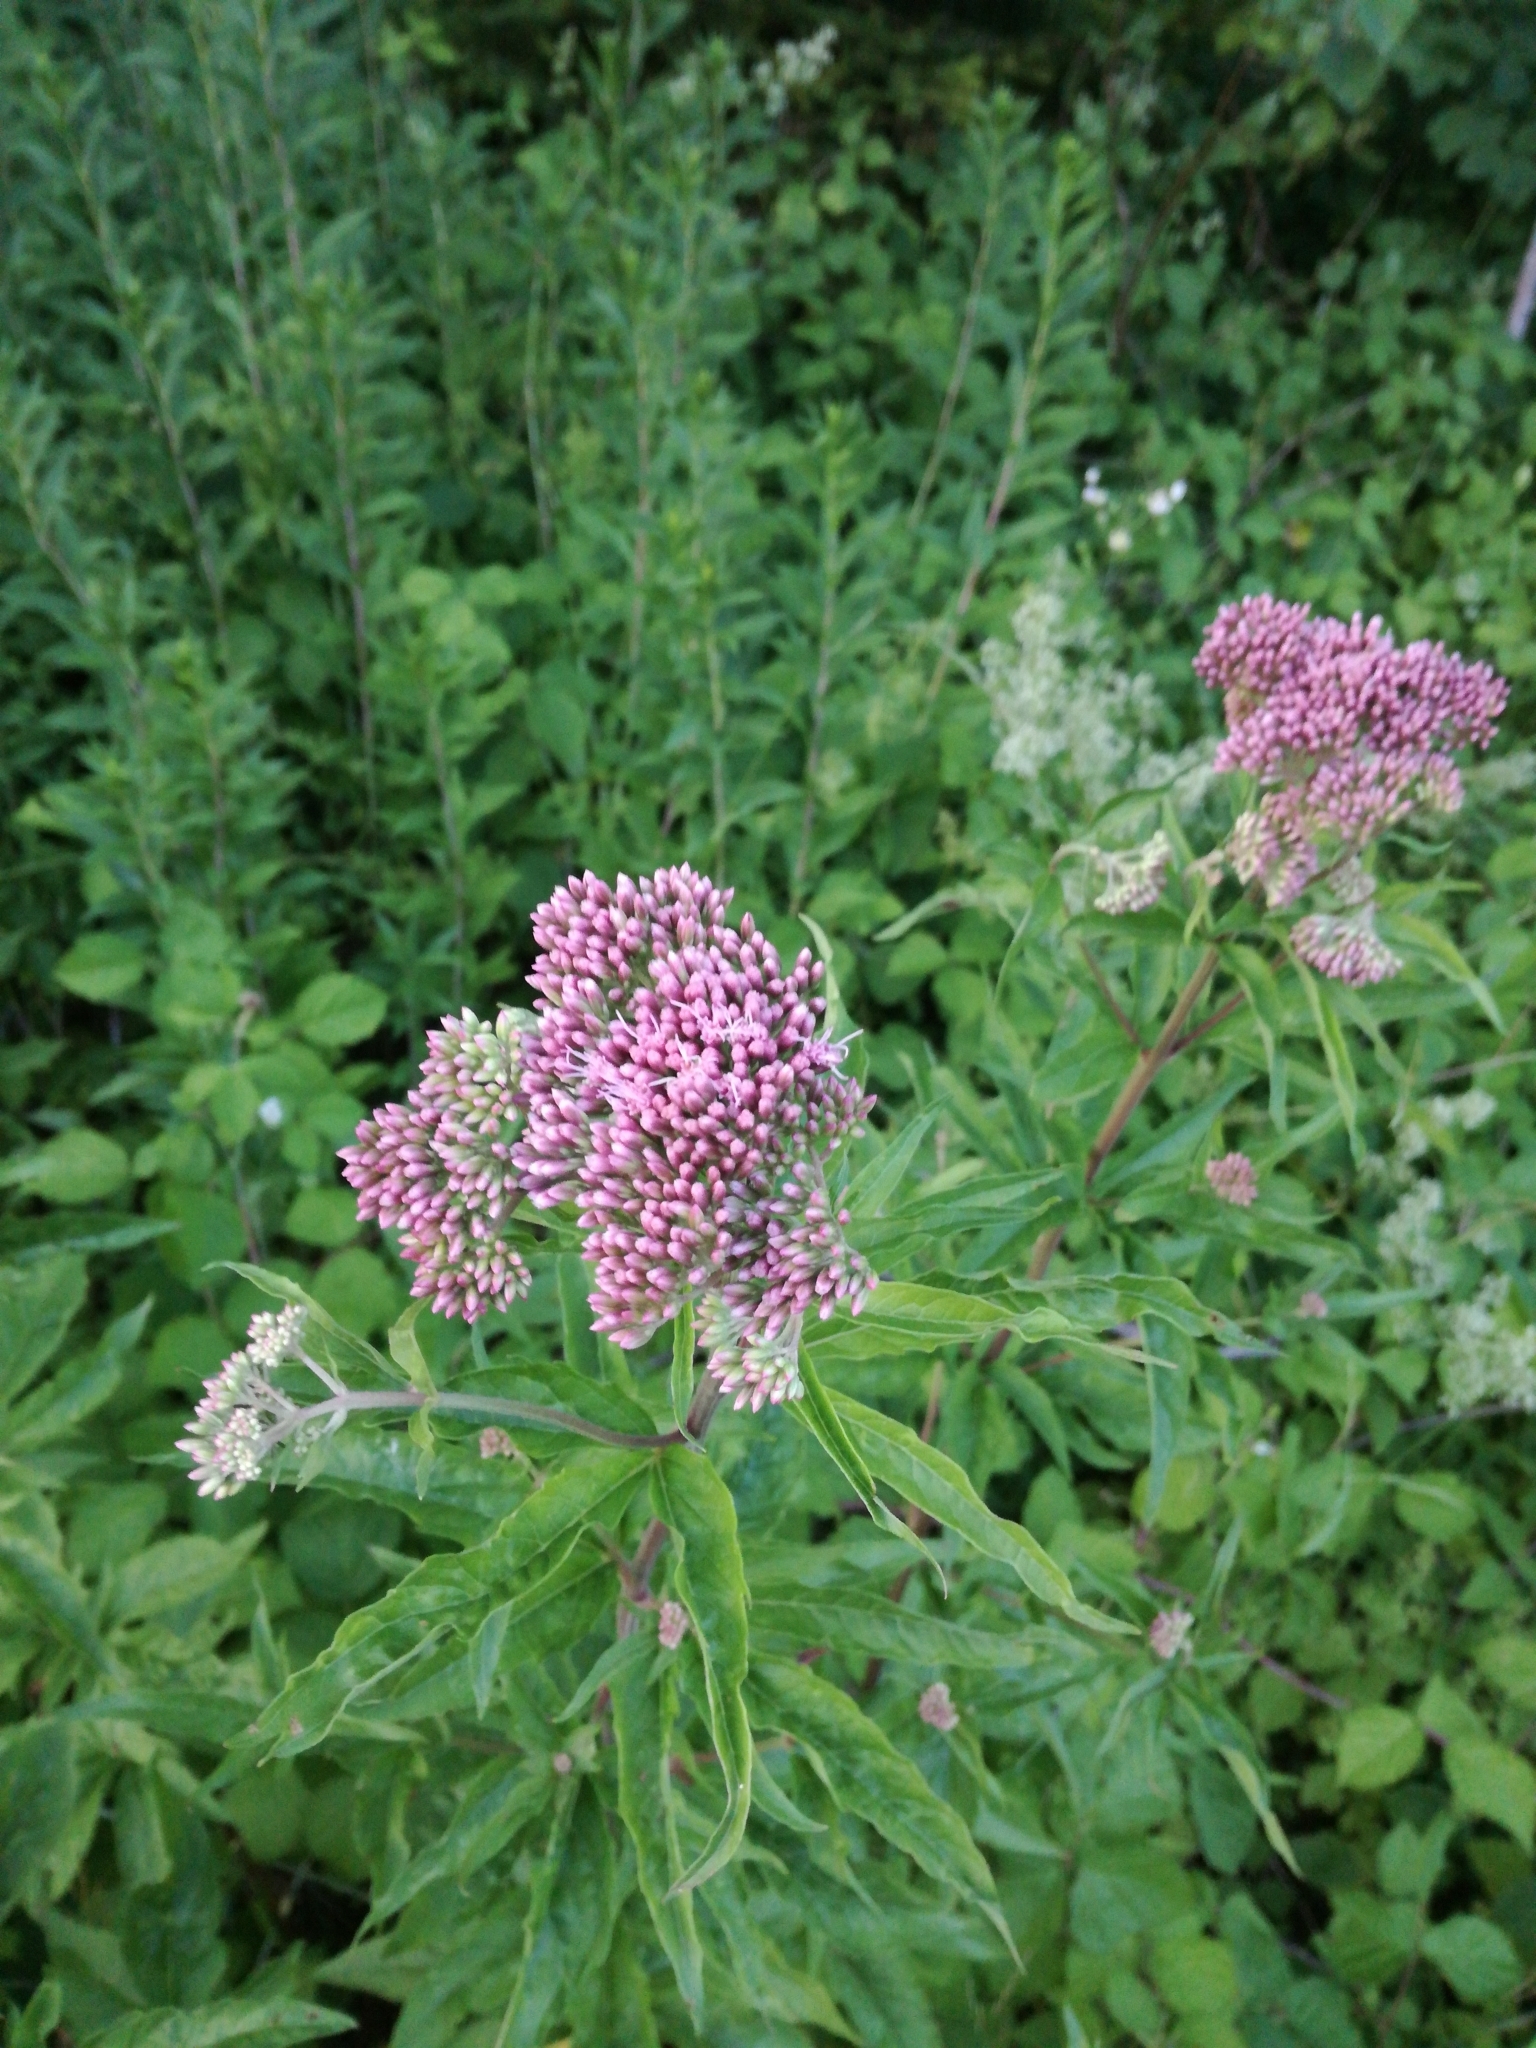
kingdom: Plantae
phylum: Tracheophyta
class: Magnoliopsida
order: Asterales
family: Asteraceae
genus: Eupatorium
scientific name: Eupatorium cannabinum
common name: Hemp-agrimony
